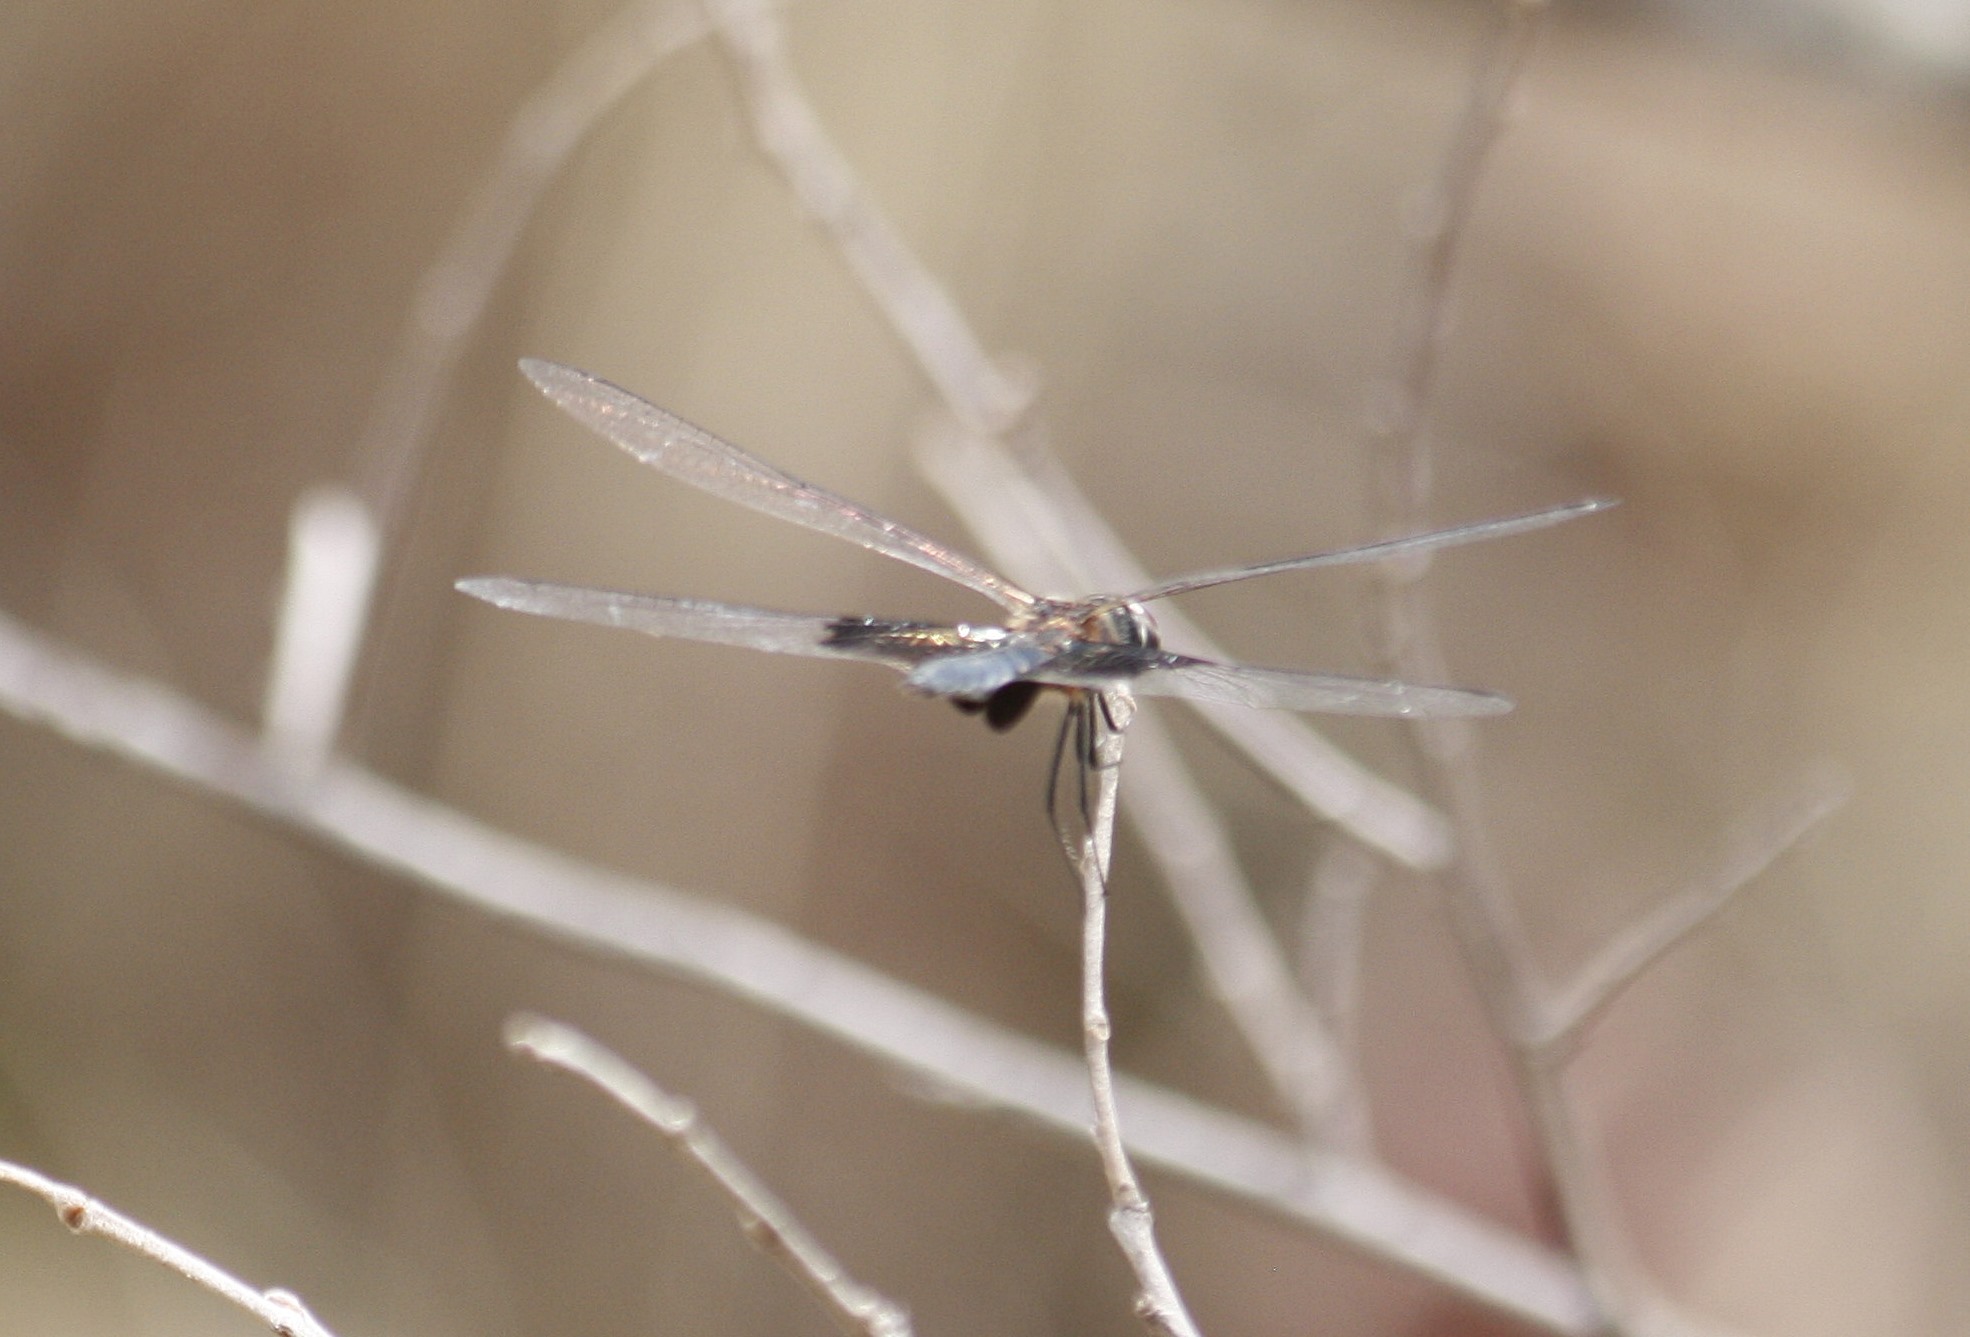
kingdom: Animalia
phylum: Arthropoda
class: Insecta
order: Odonata
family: Libellulidae
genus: Rhyothemis
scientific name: Rhyothemis semihyalina
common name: Phantom flutterer
